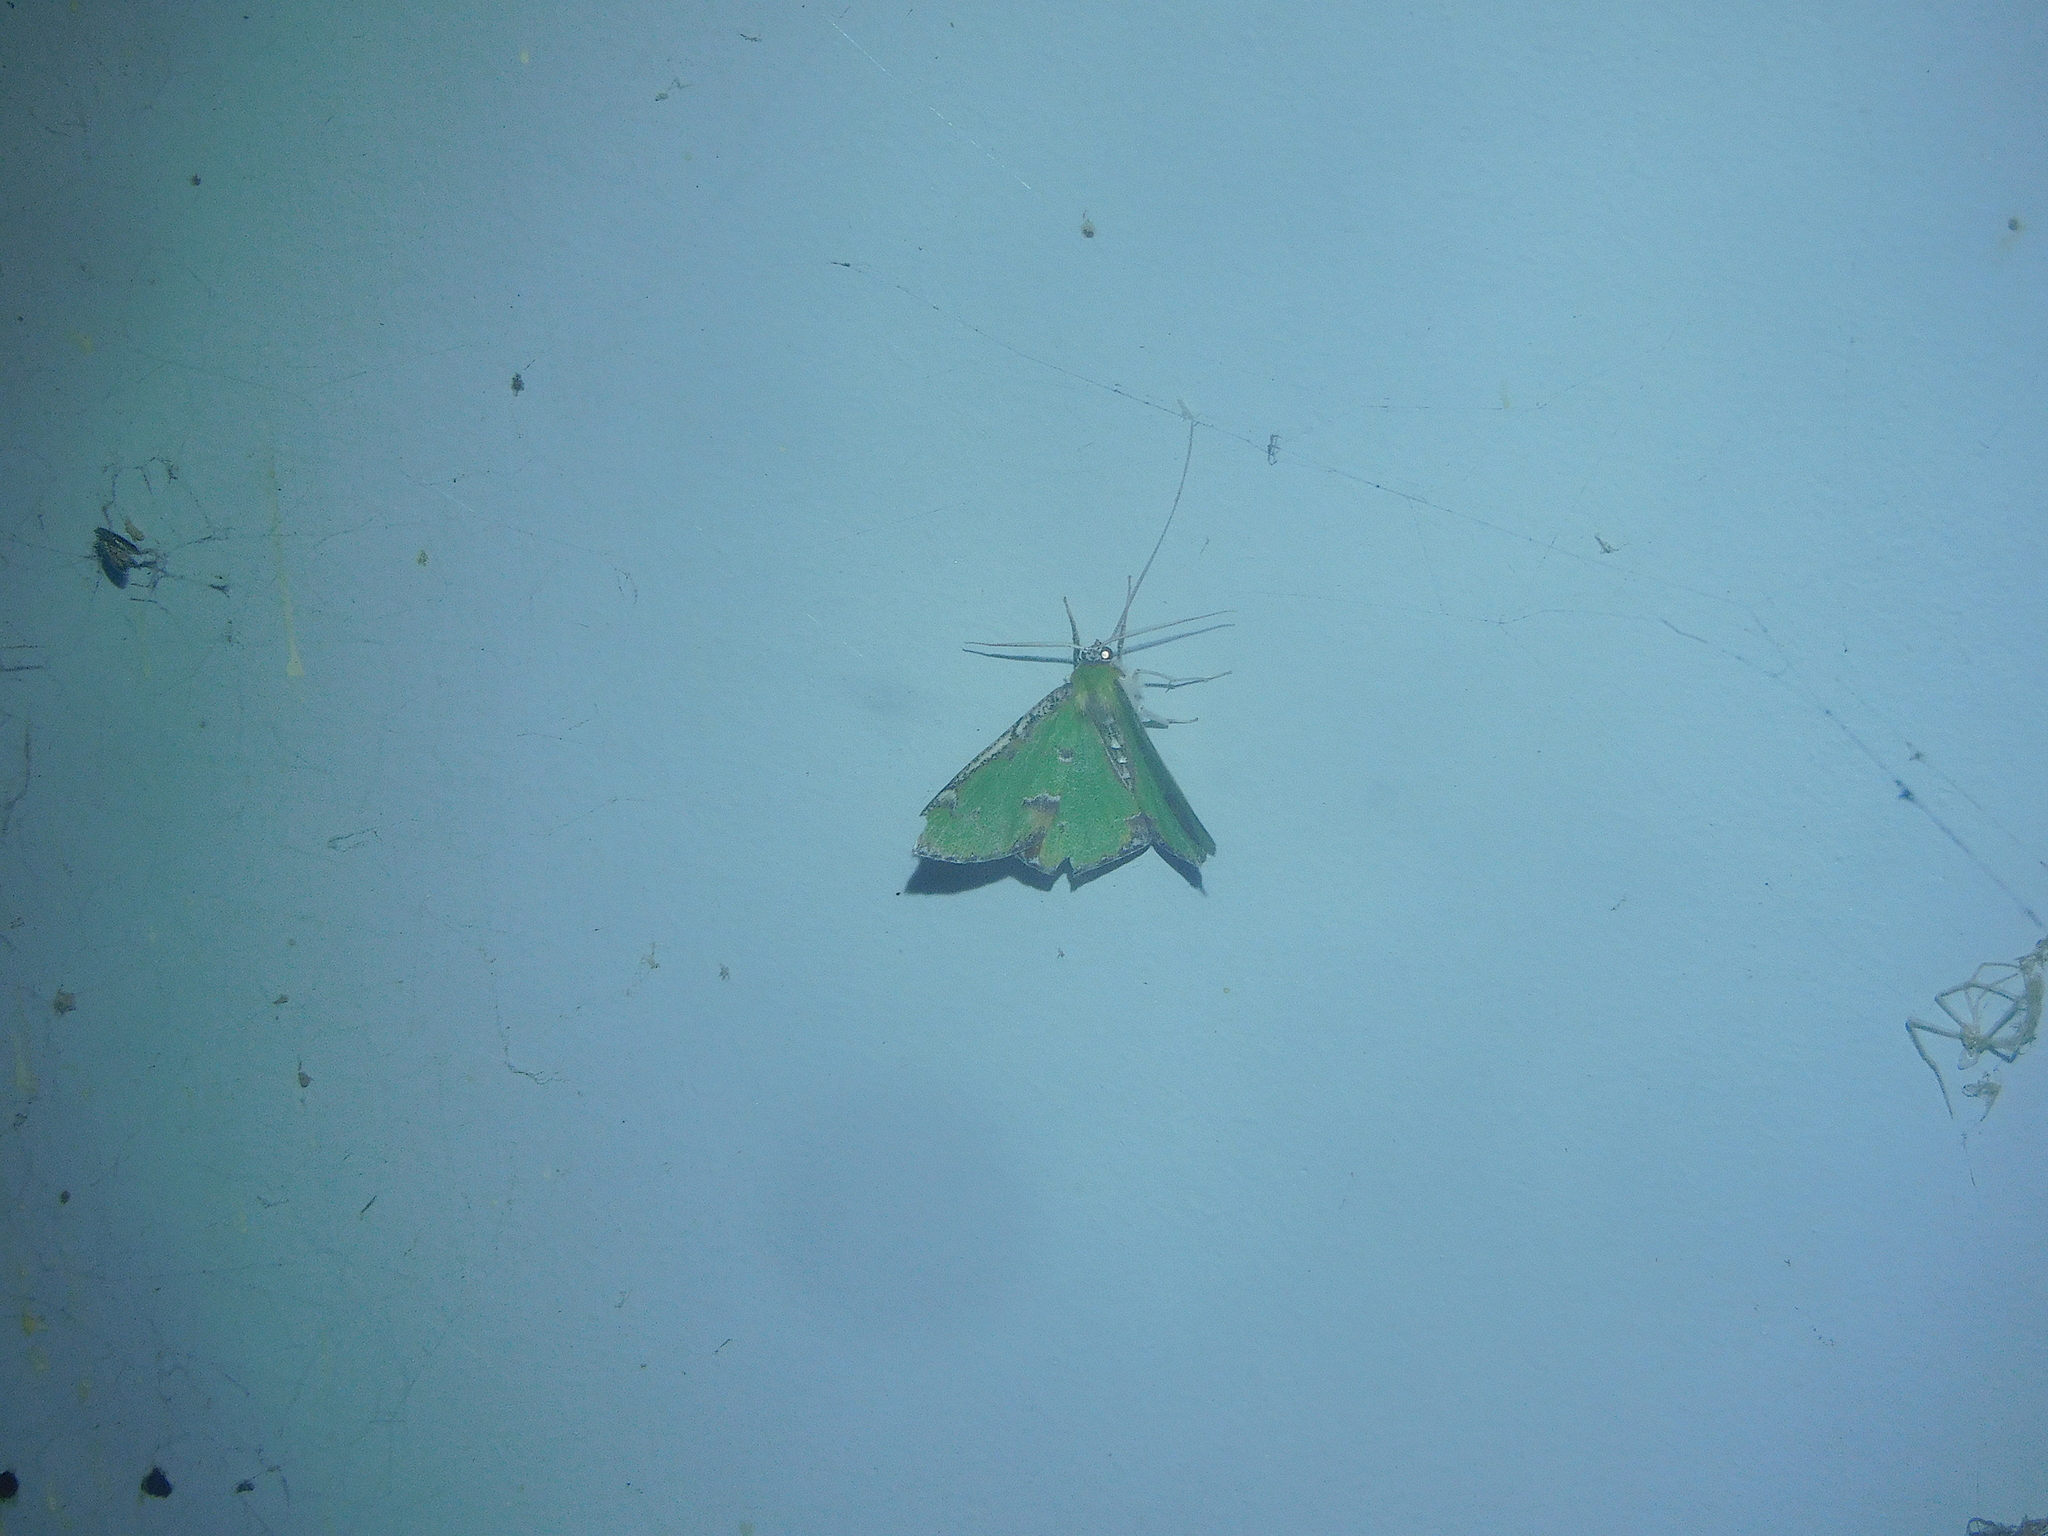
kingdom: Animalia
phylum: Arthropoda
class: Insecta
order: Lepidoptera
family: Geometridae
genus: Eucyclodes
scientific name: Eucyclodes buprestaria
